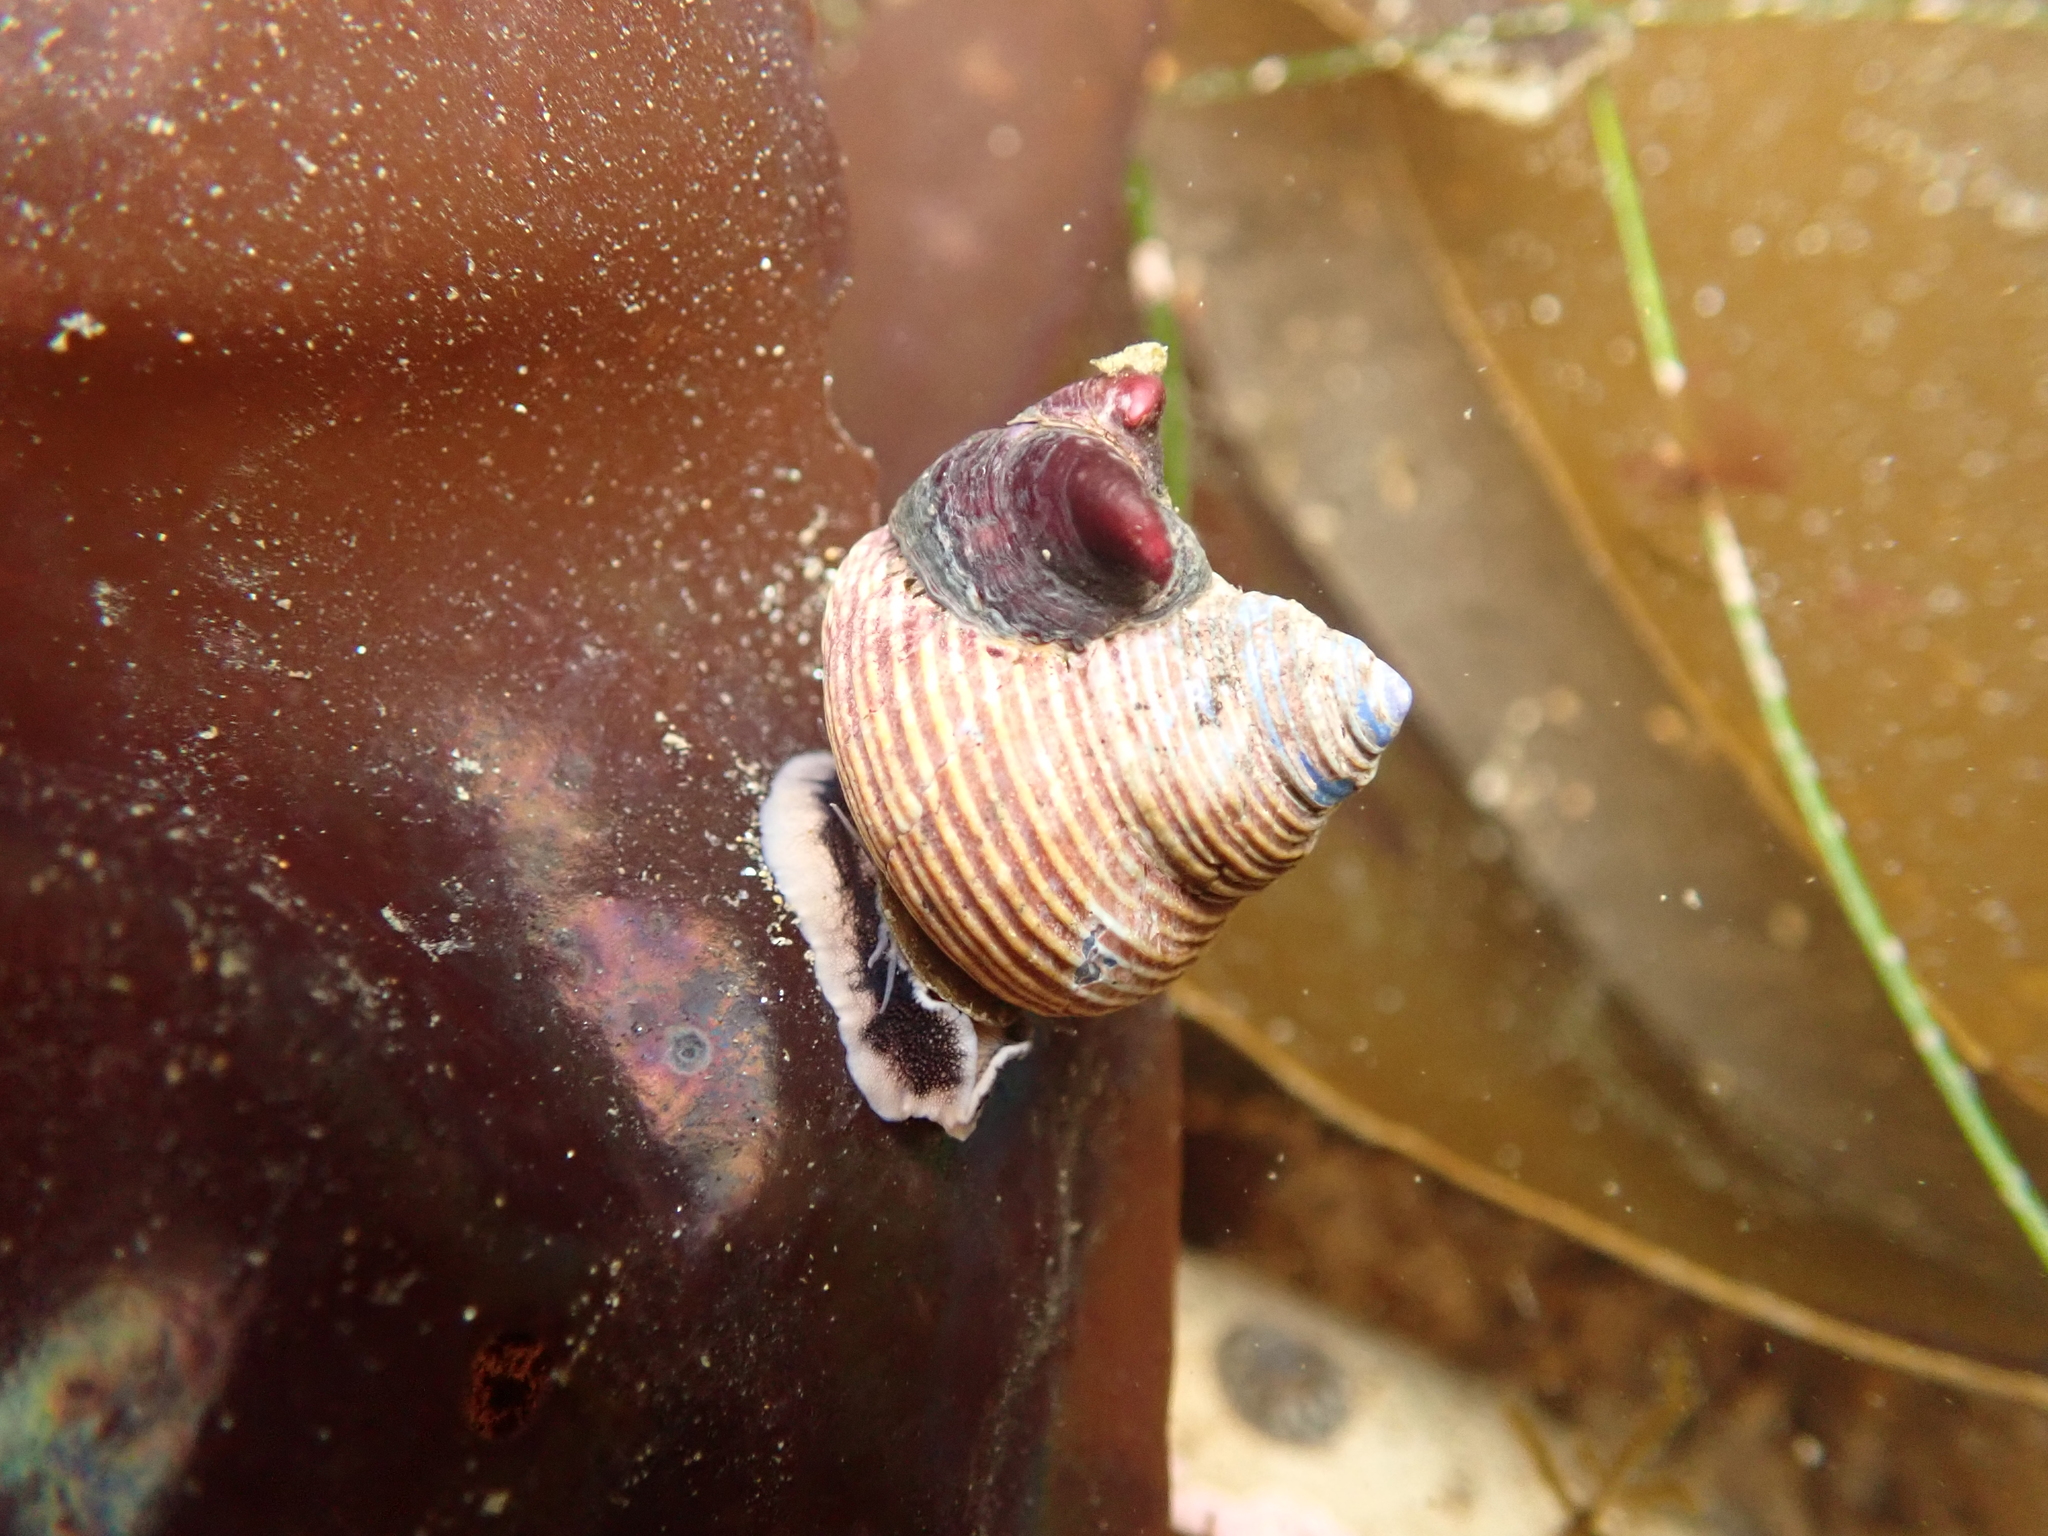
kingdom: Animalia
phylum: Mollusca
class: Gastropoda
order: Trochida
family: Calliostomatidae
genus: Calliostoma
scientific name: Calliostoma ligatum
